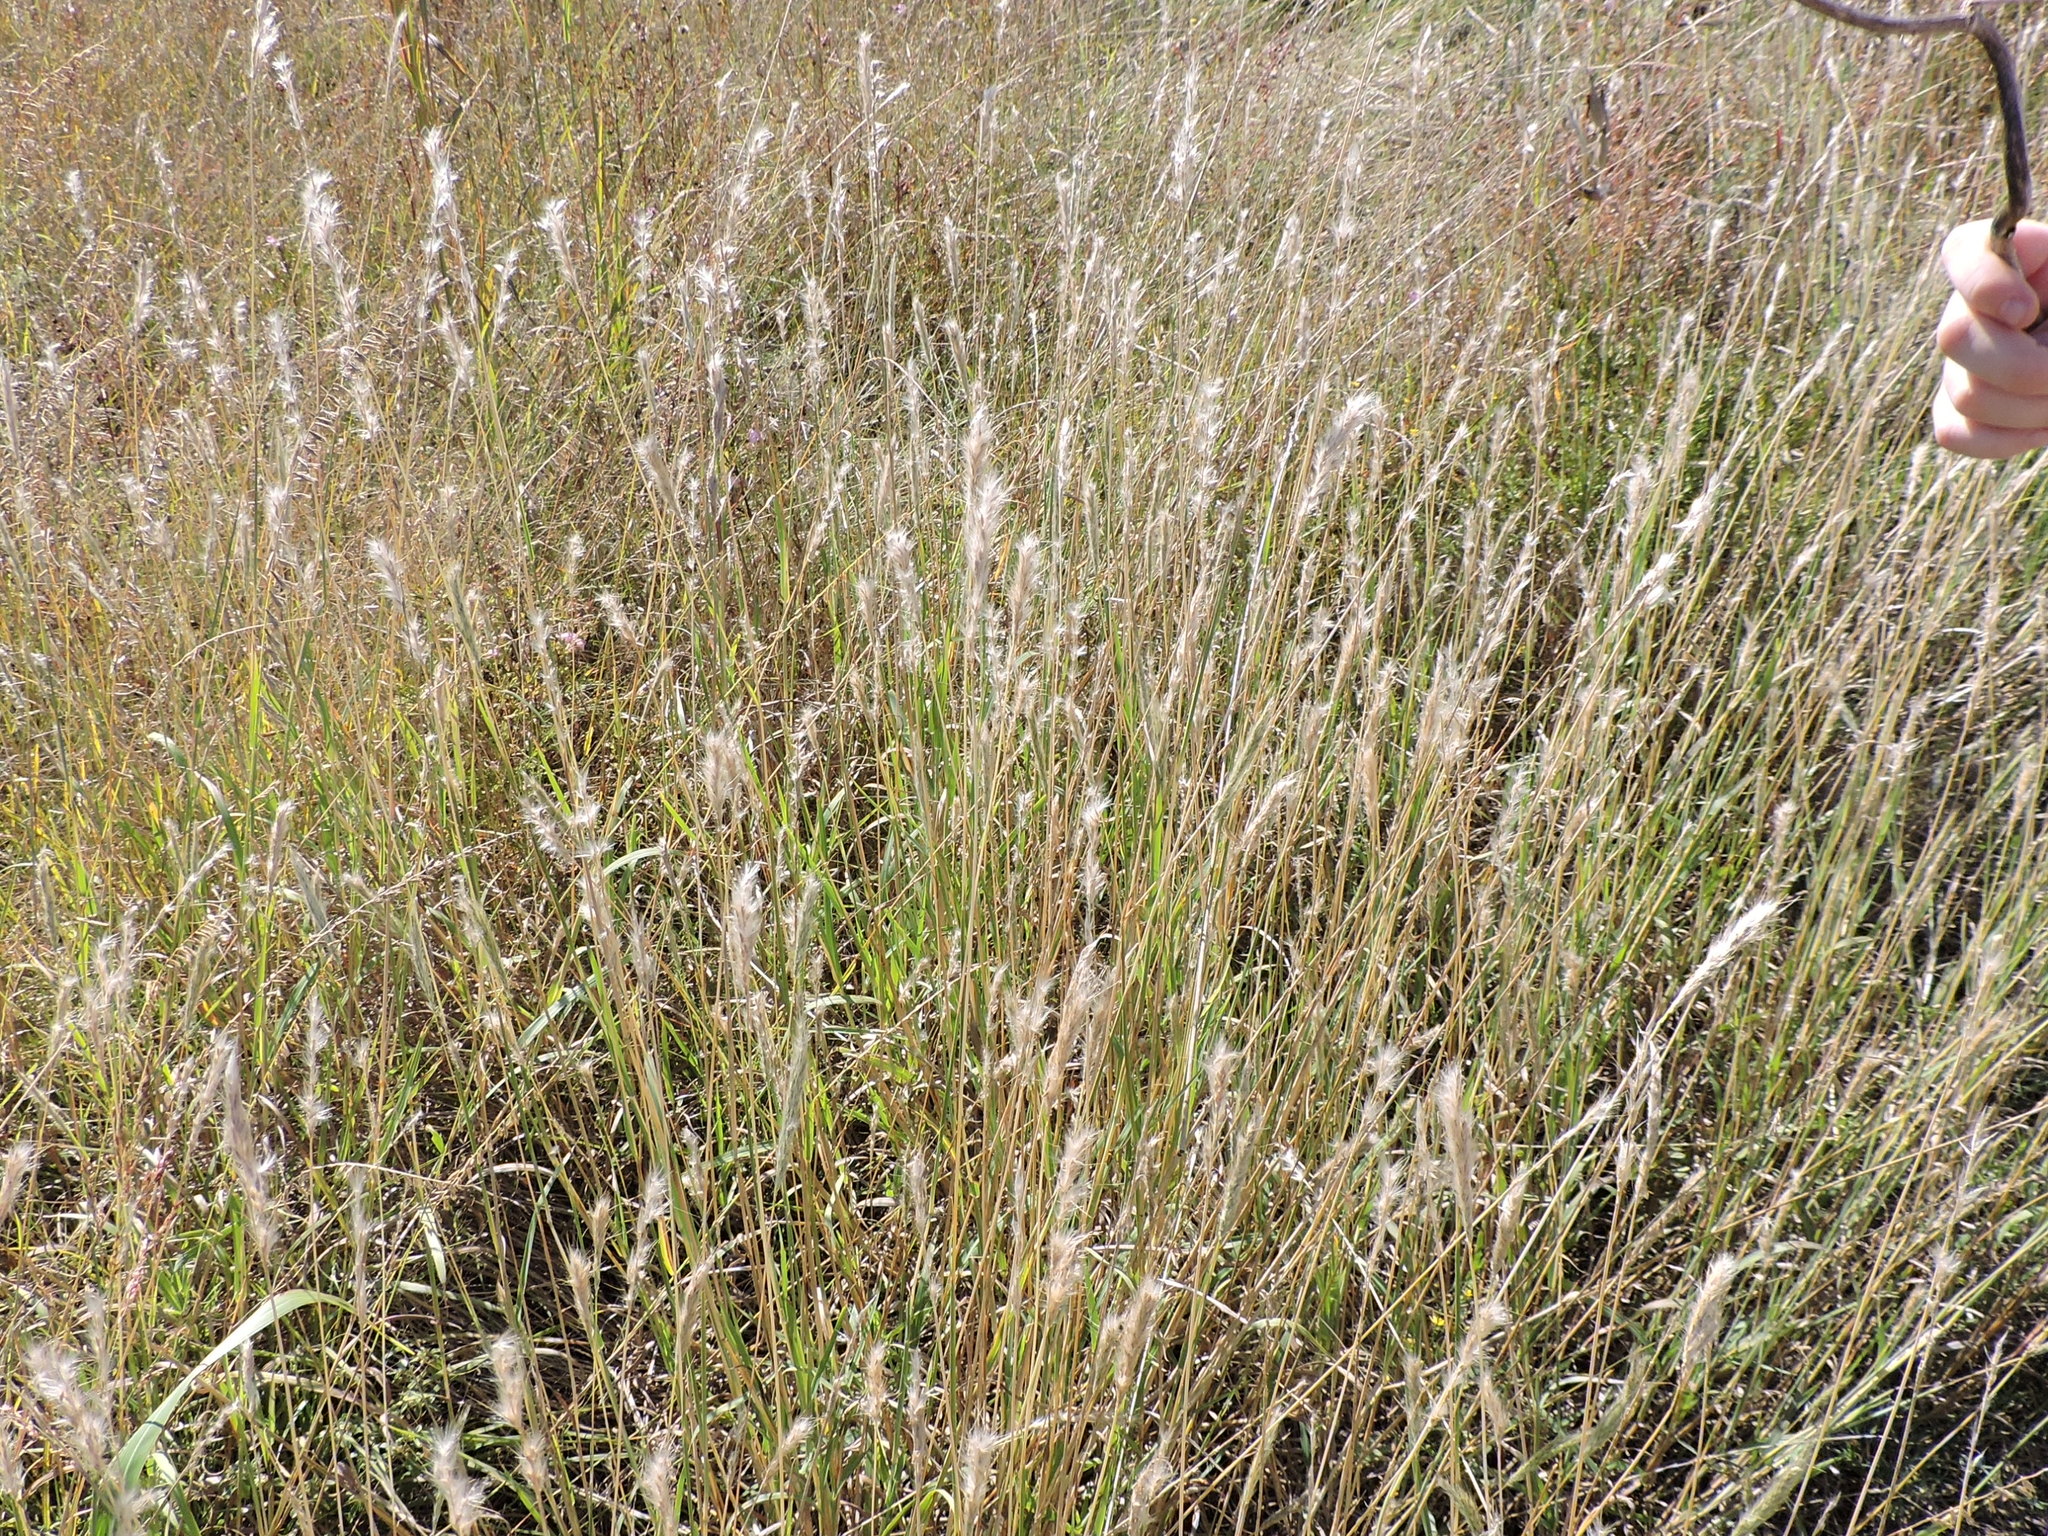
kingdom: Plantae
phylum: Tracheophyta
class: Liliopsida
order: Poales
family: Poaceae
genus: Bothriochloa
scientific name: Bothriochloa torreyana
